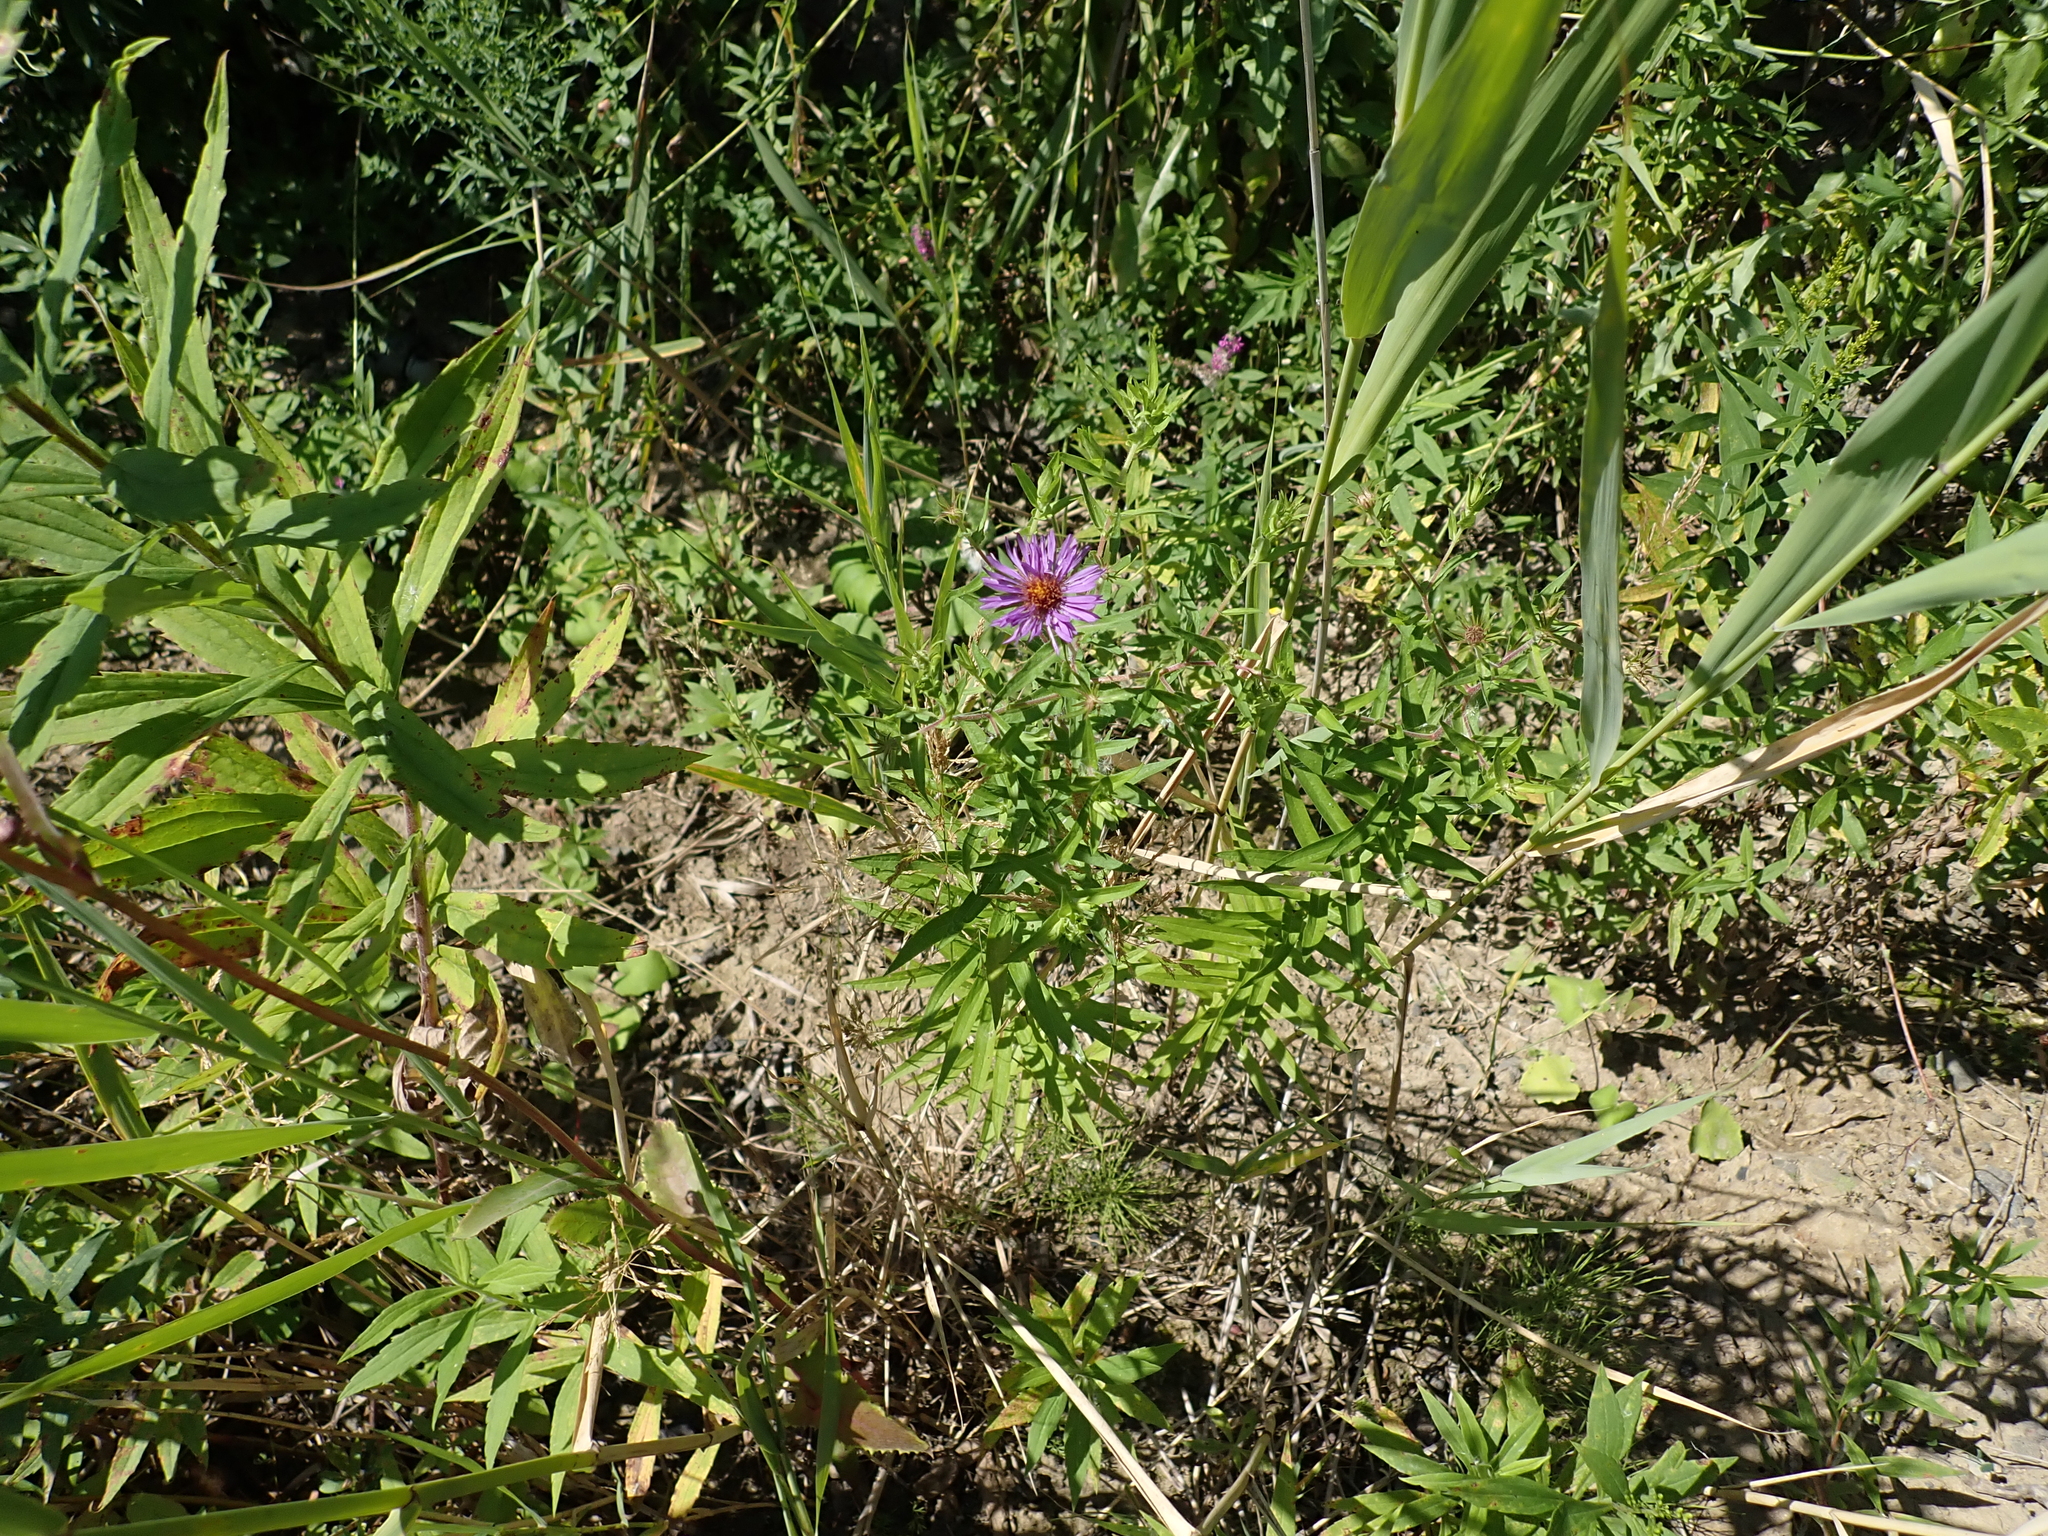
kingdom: Plantae
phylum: Tracheophyta
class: Magnoliopsida
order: Asterales
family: Asteraceae
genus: Symphyotrichum
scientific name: Symphyotrichum novae-angliae
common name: Michaelmas daisy
